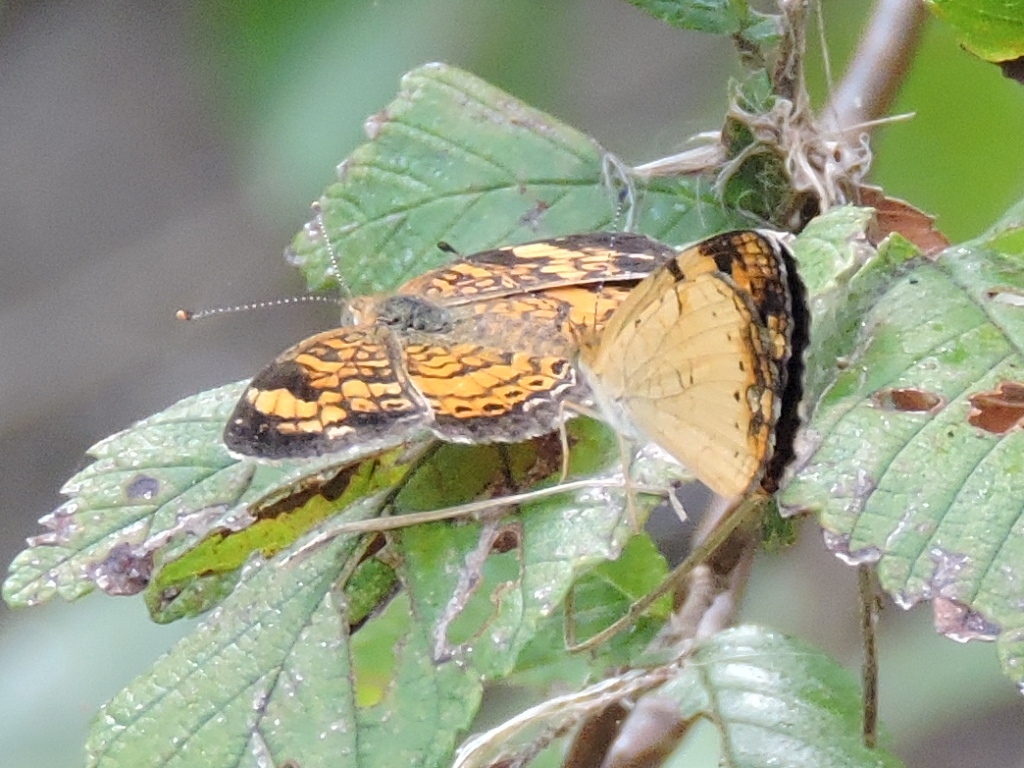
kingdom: Animalia
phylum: Arthropoda
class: Insecta
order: Lepidoptera
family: Nymphalidae
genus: Phyciodes
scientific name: Phyciodes tharos
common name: Pearl crescent
